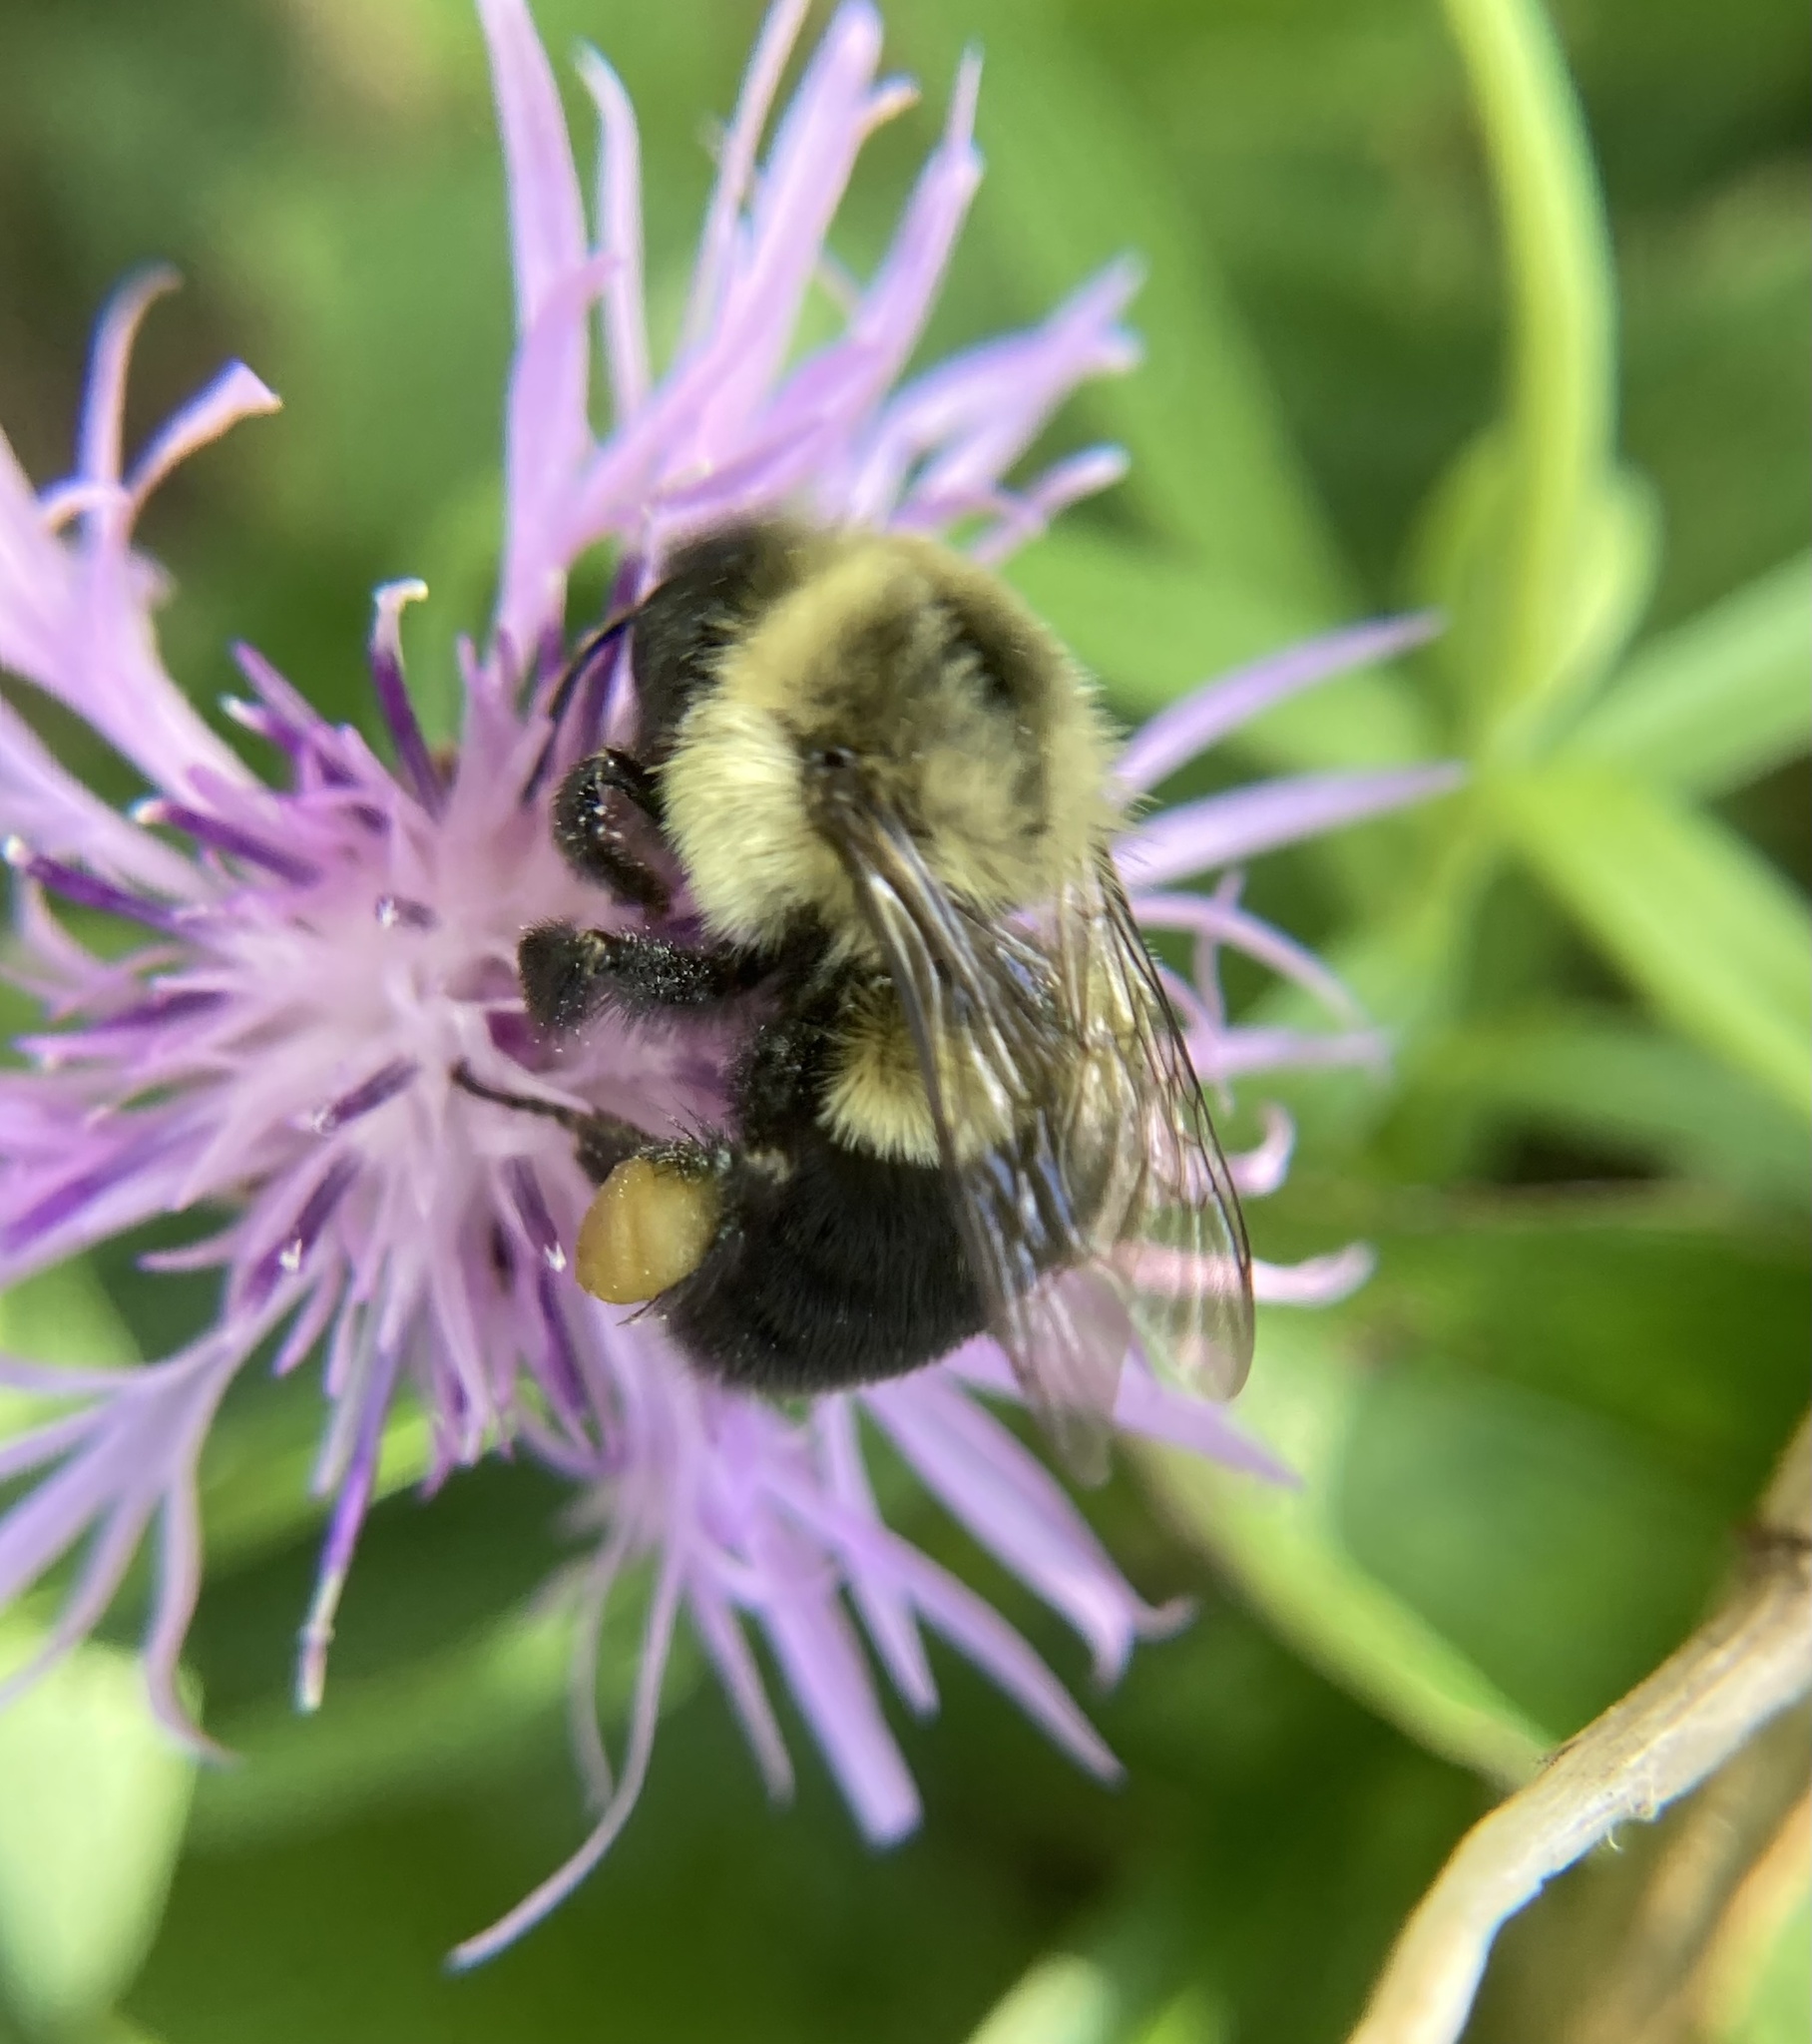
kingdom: Animalia
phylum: Arthropoda
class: Insecta
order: Hymenoptera
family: Apidae
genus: Bombus
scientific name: Bombus impatiens
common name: Common eastern bumble bee
